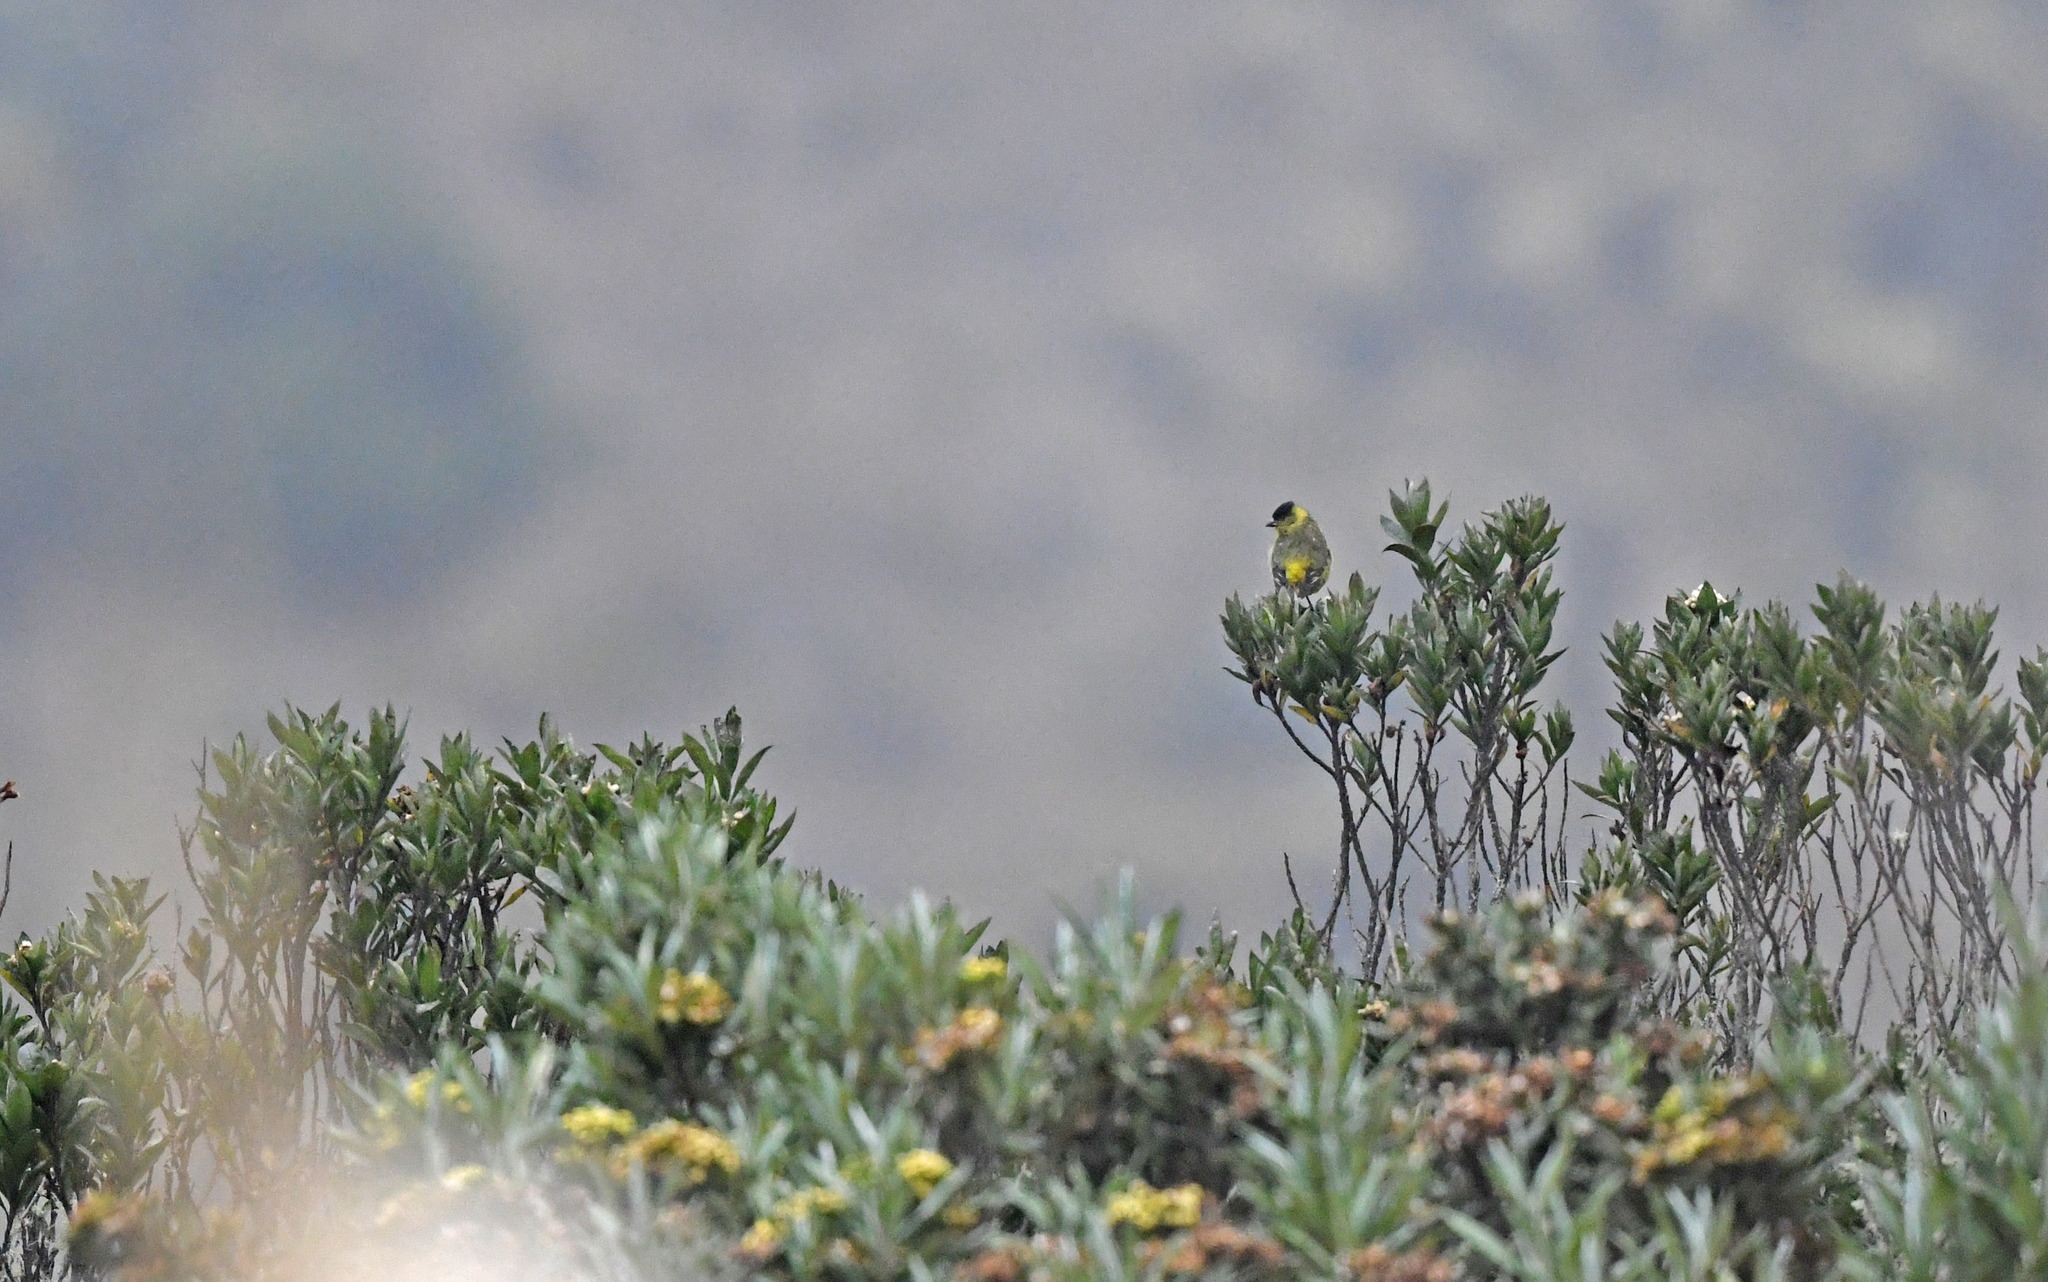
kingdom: Animalia
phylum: Chordata
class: Aves
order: Passeriformes
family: Fringillidae
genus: Spinus
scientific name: Spinus spinescens
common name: Andean siskin
